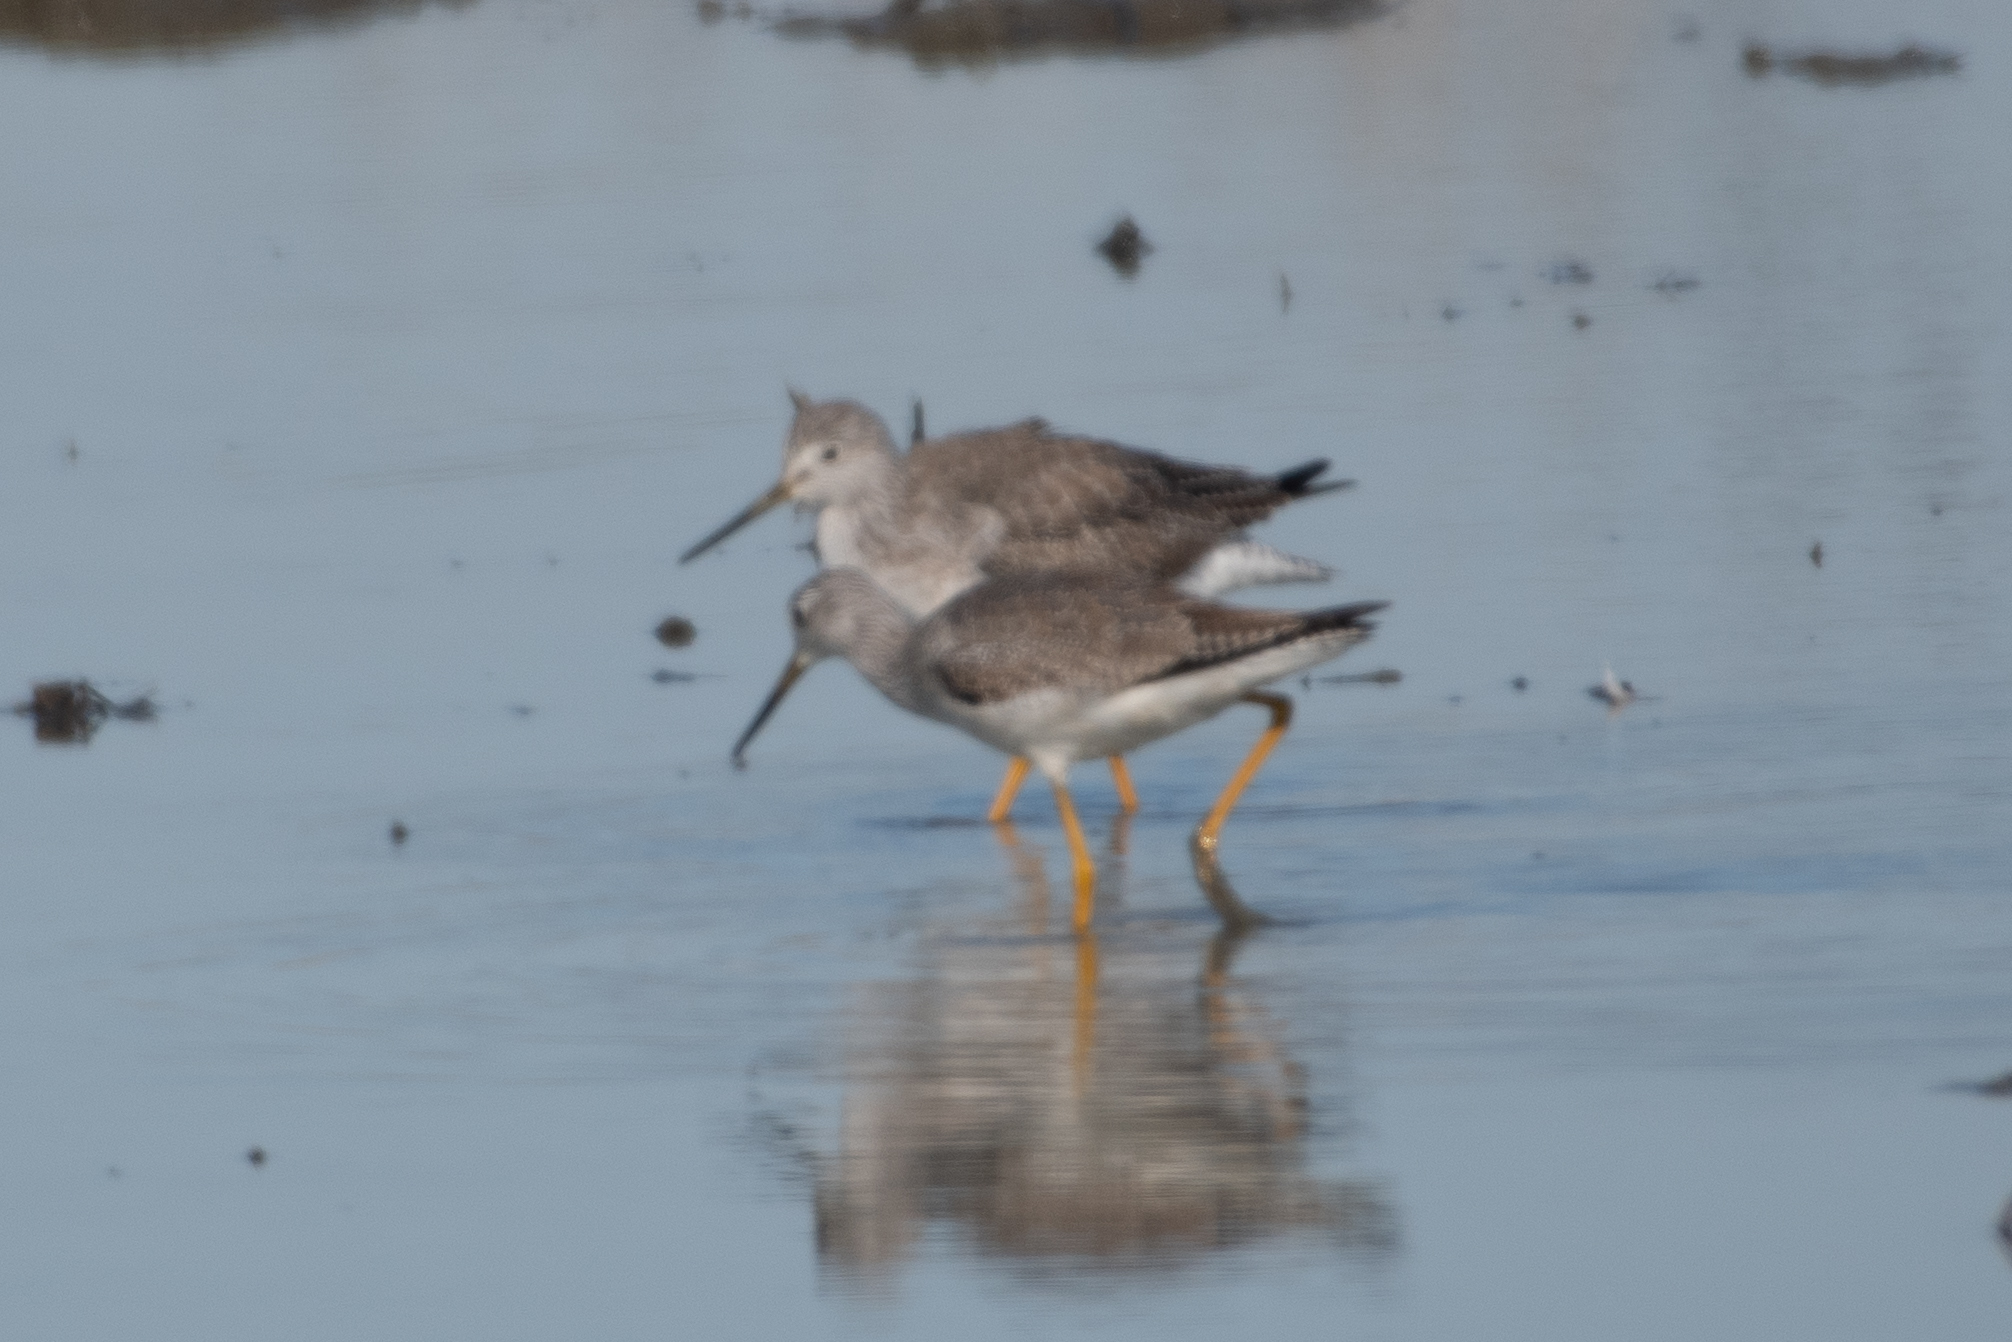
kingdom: Animalia
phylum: Chordata
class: Aves
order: Charadriiformes
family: Scolopacidae
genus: Tringa
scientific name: Tringa melanoleuca
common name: Greater yellowlegs
